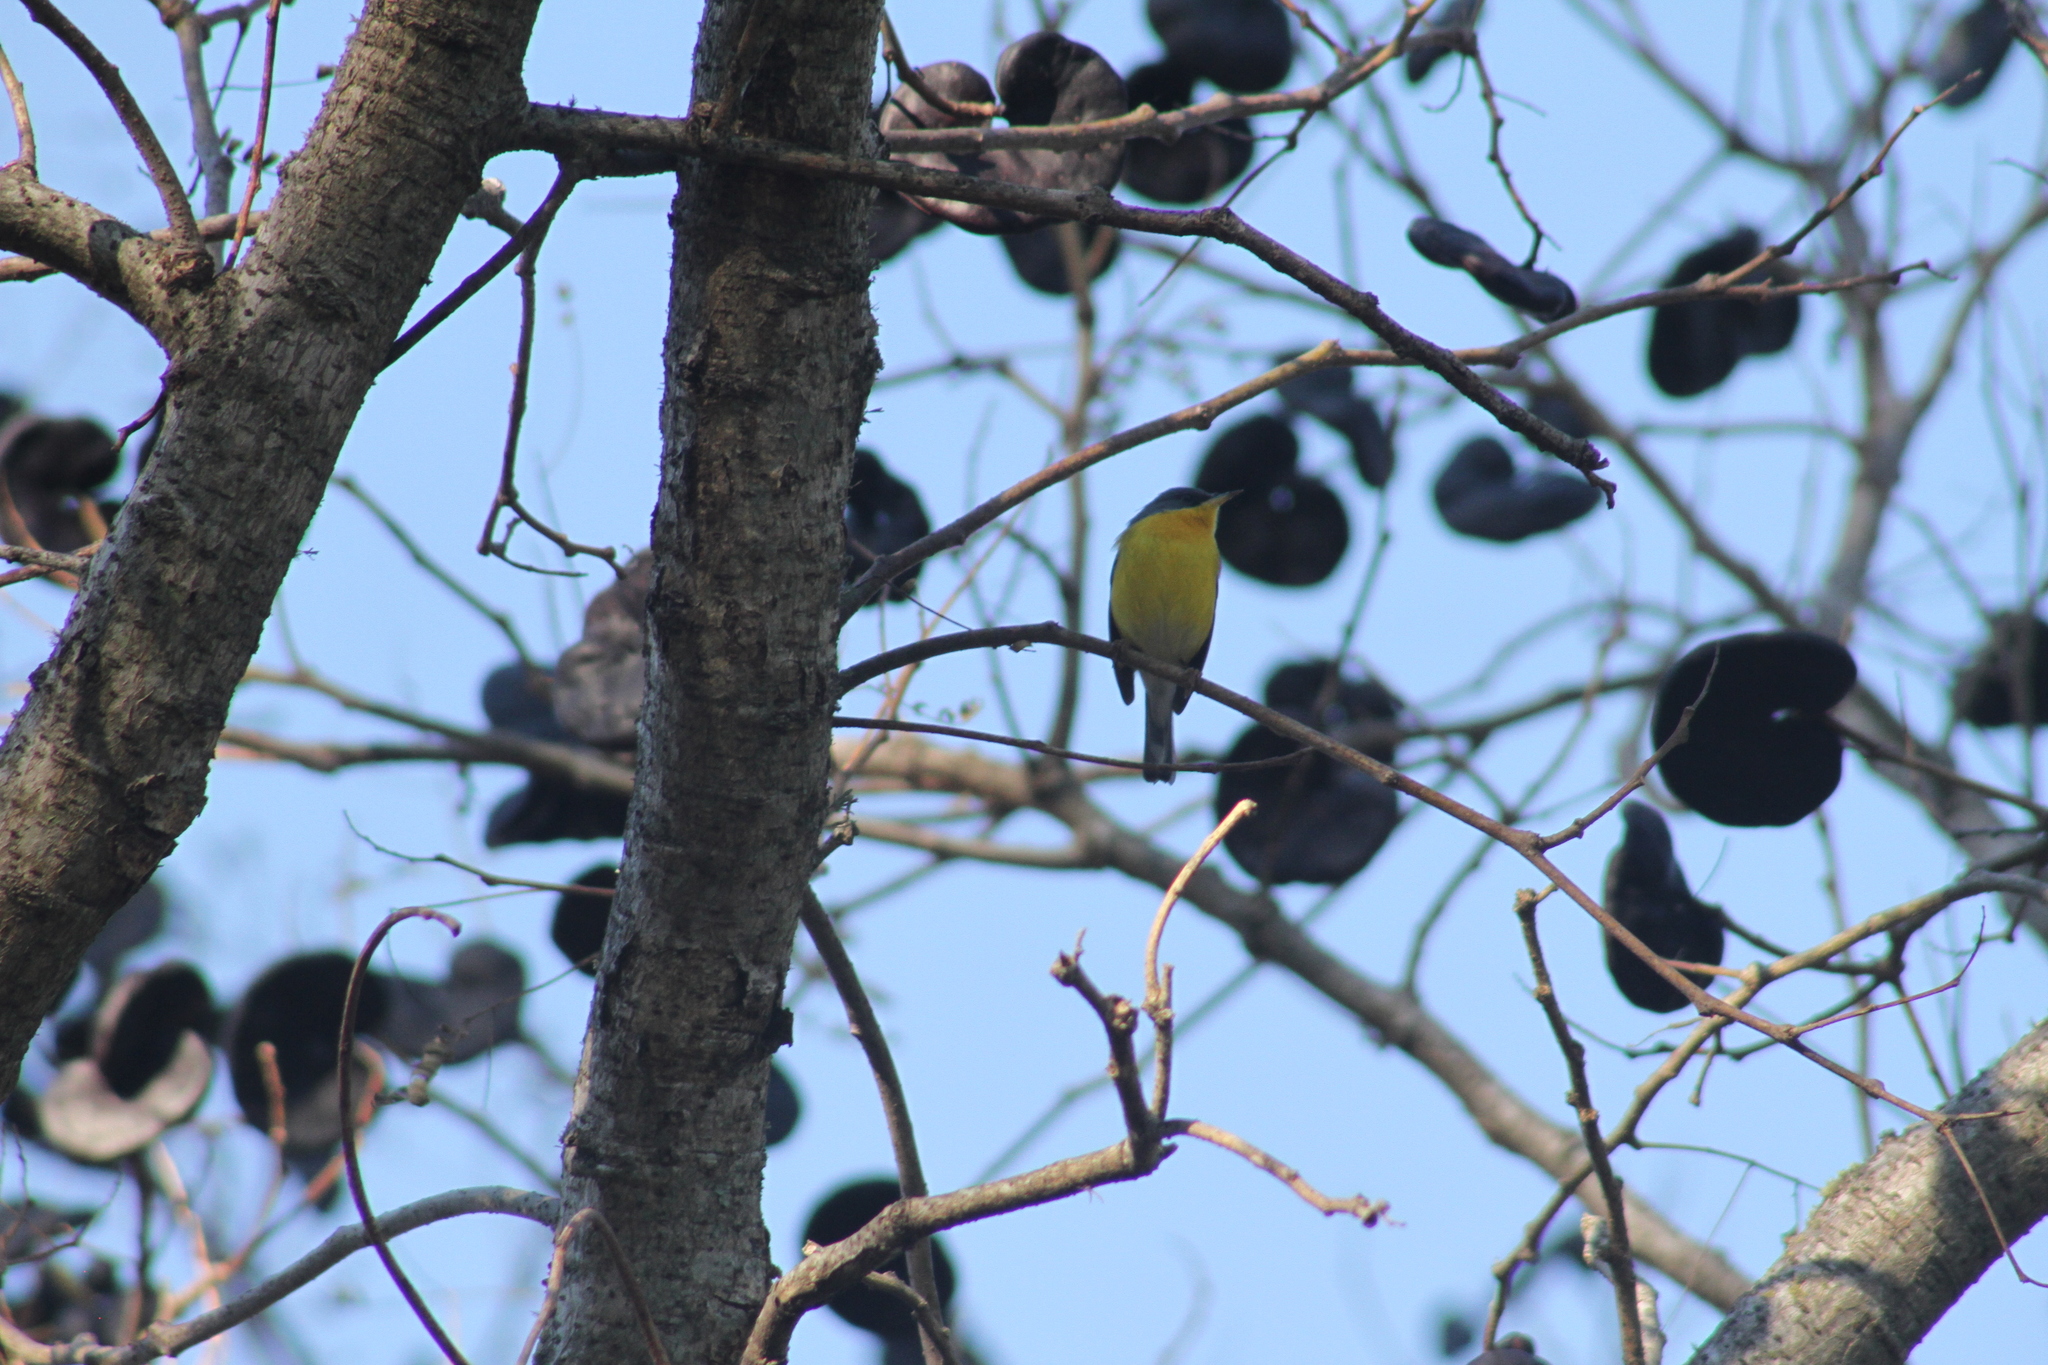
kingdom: Animalia
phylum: Chordata
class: Aves
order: Passeriformes
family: Parulidae
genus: Setophaga
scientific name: Setophaga pitiayumi
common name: Tropical parula
